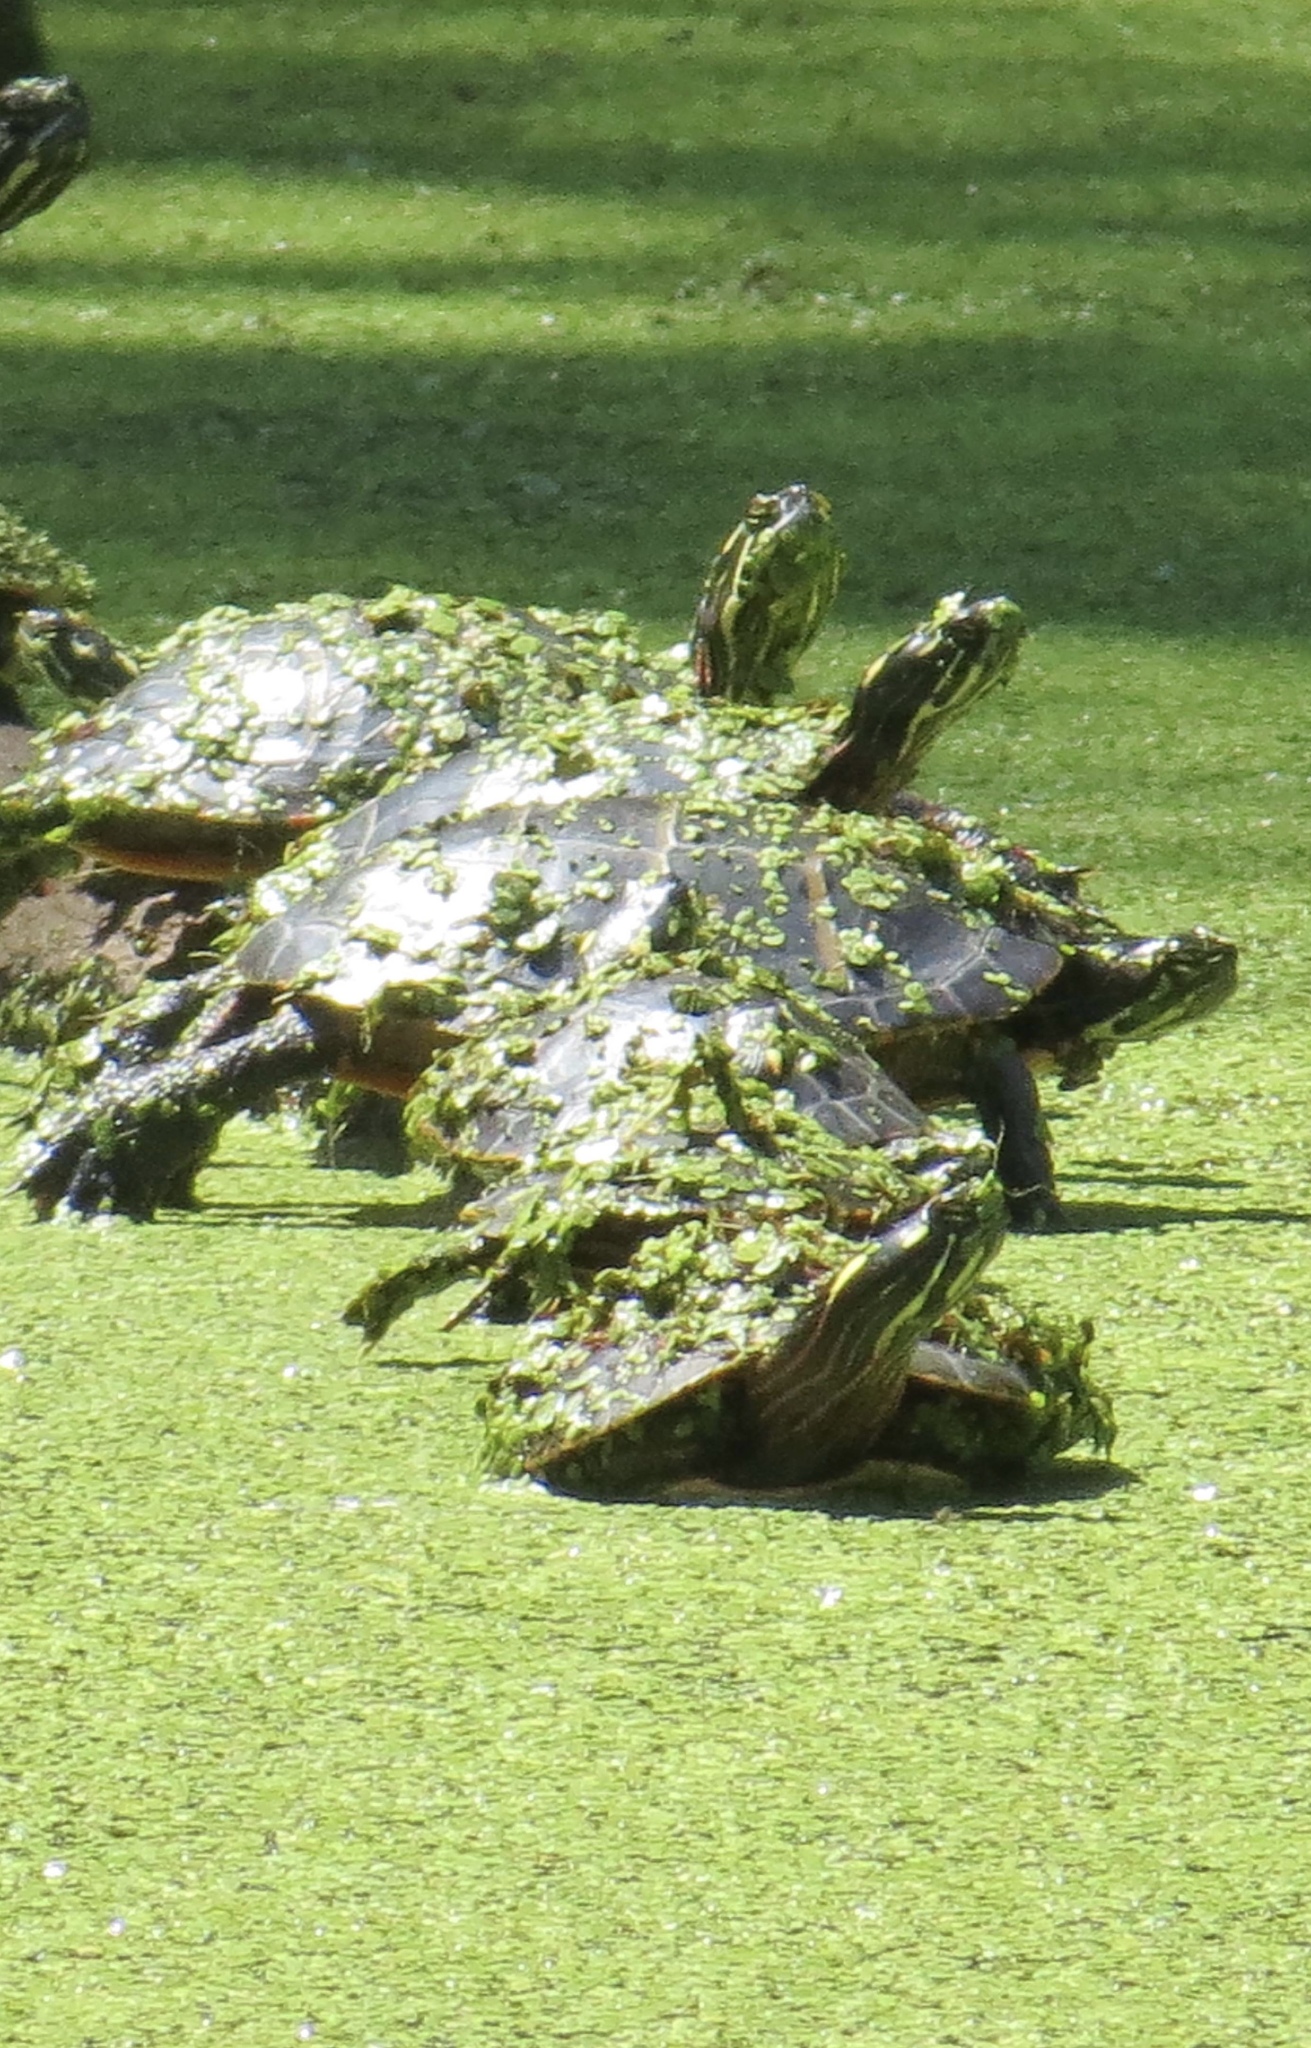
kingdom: Animalia
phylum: Chordata
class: Testudines
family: Emydidae
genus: Chrysemys
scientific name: Chrysemys picta
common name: Painted turtle
